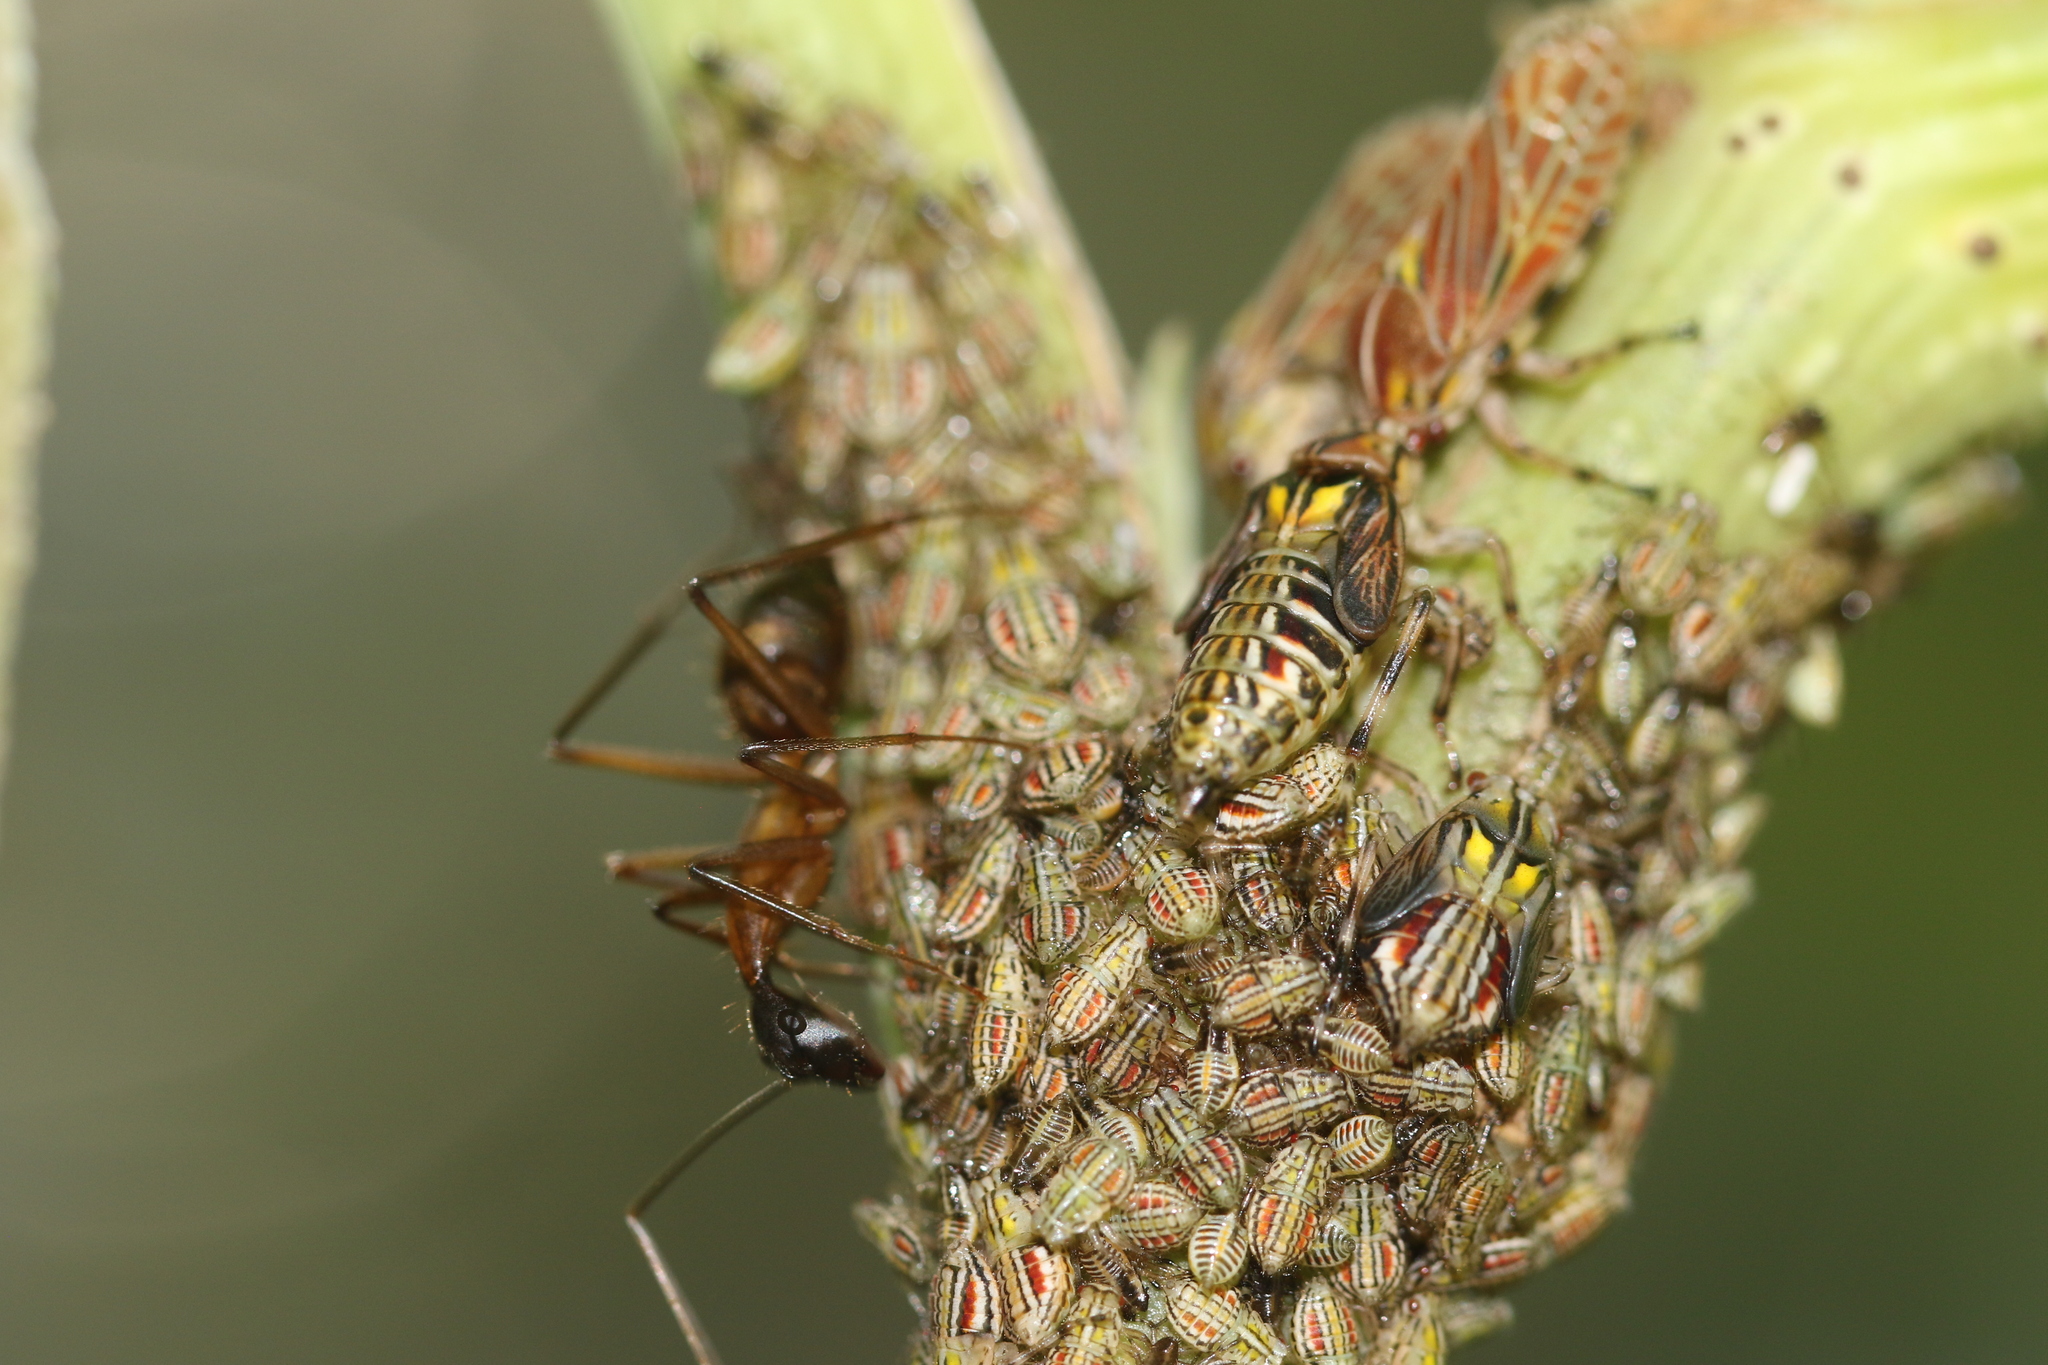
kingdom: Animalia
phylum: Arthropoda
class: Insecta
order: Hemiptera
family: Aetalionidae
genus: Aetalion
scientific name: Aetalion reticulatum
